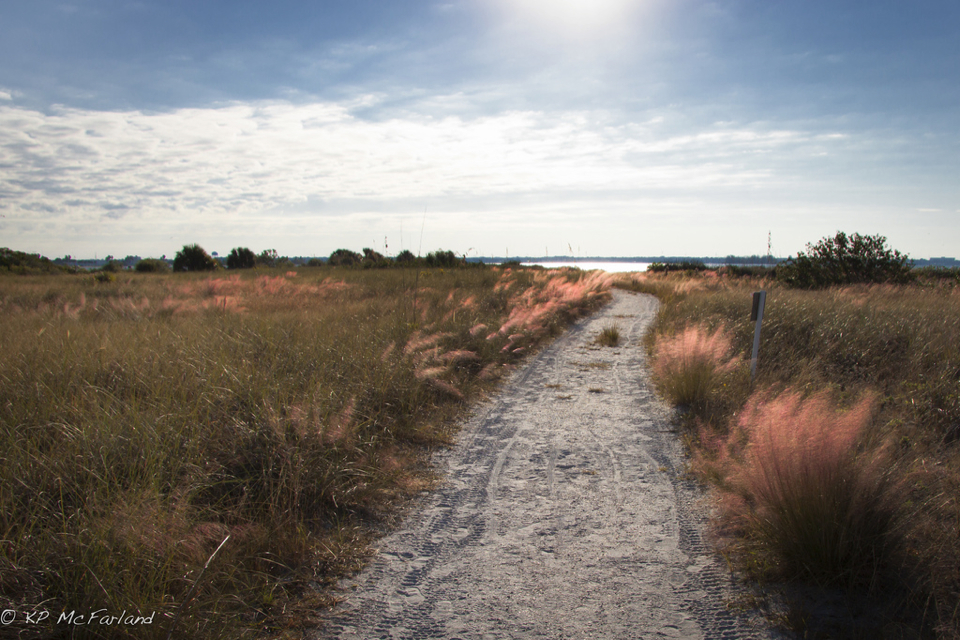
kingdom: Plantae
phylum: Tracheophyta
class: Liliopsida
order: Poales
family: Poaceae
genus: Muhlenbergia
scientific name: Muhlenbergia capillaris
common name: Purple grass
